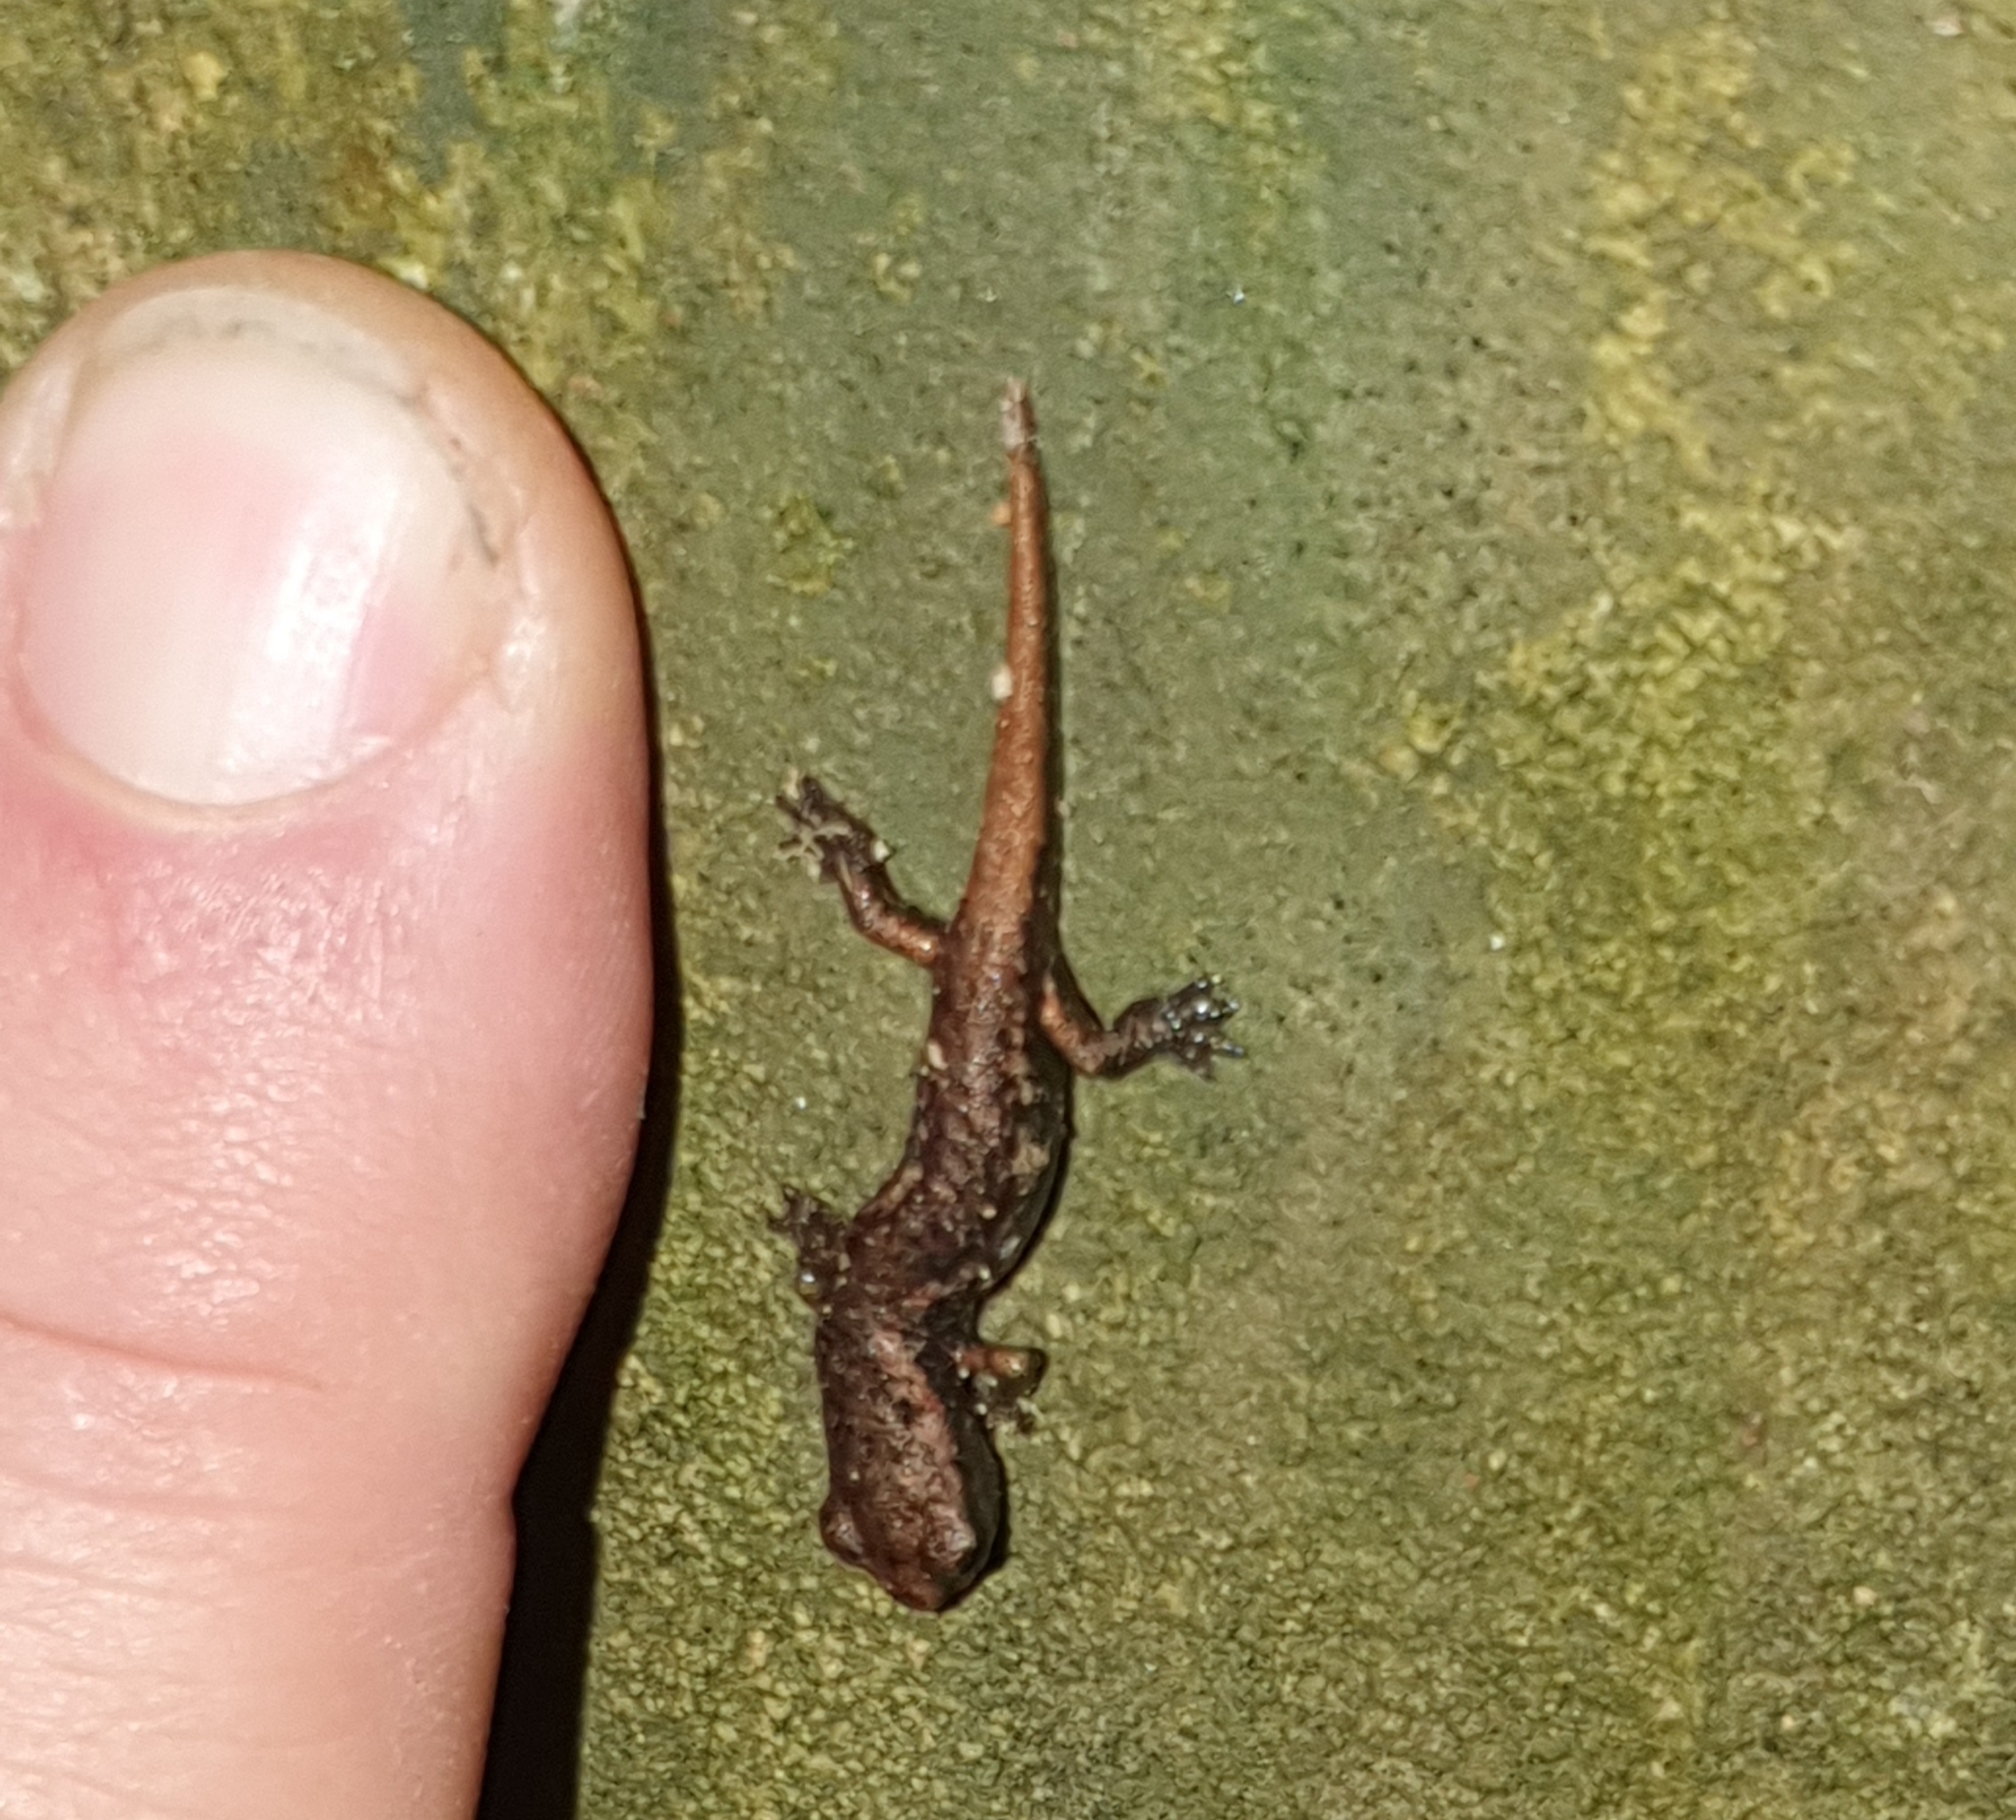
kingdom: Animalia
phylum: Chordata
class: Amphibia
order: Caudata
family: Plethodontidae
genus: Speleomantes
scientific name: Speleomantes ambrosii
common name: Ambrosi's cave salamander
